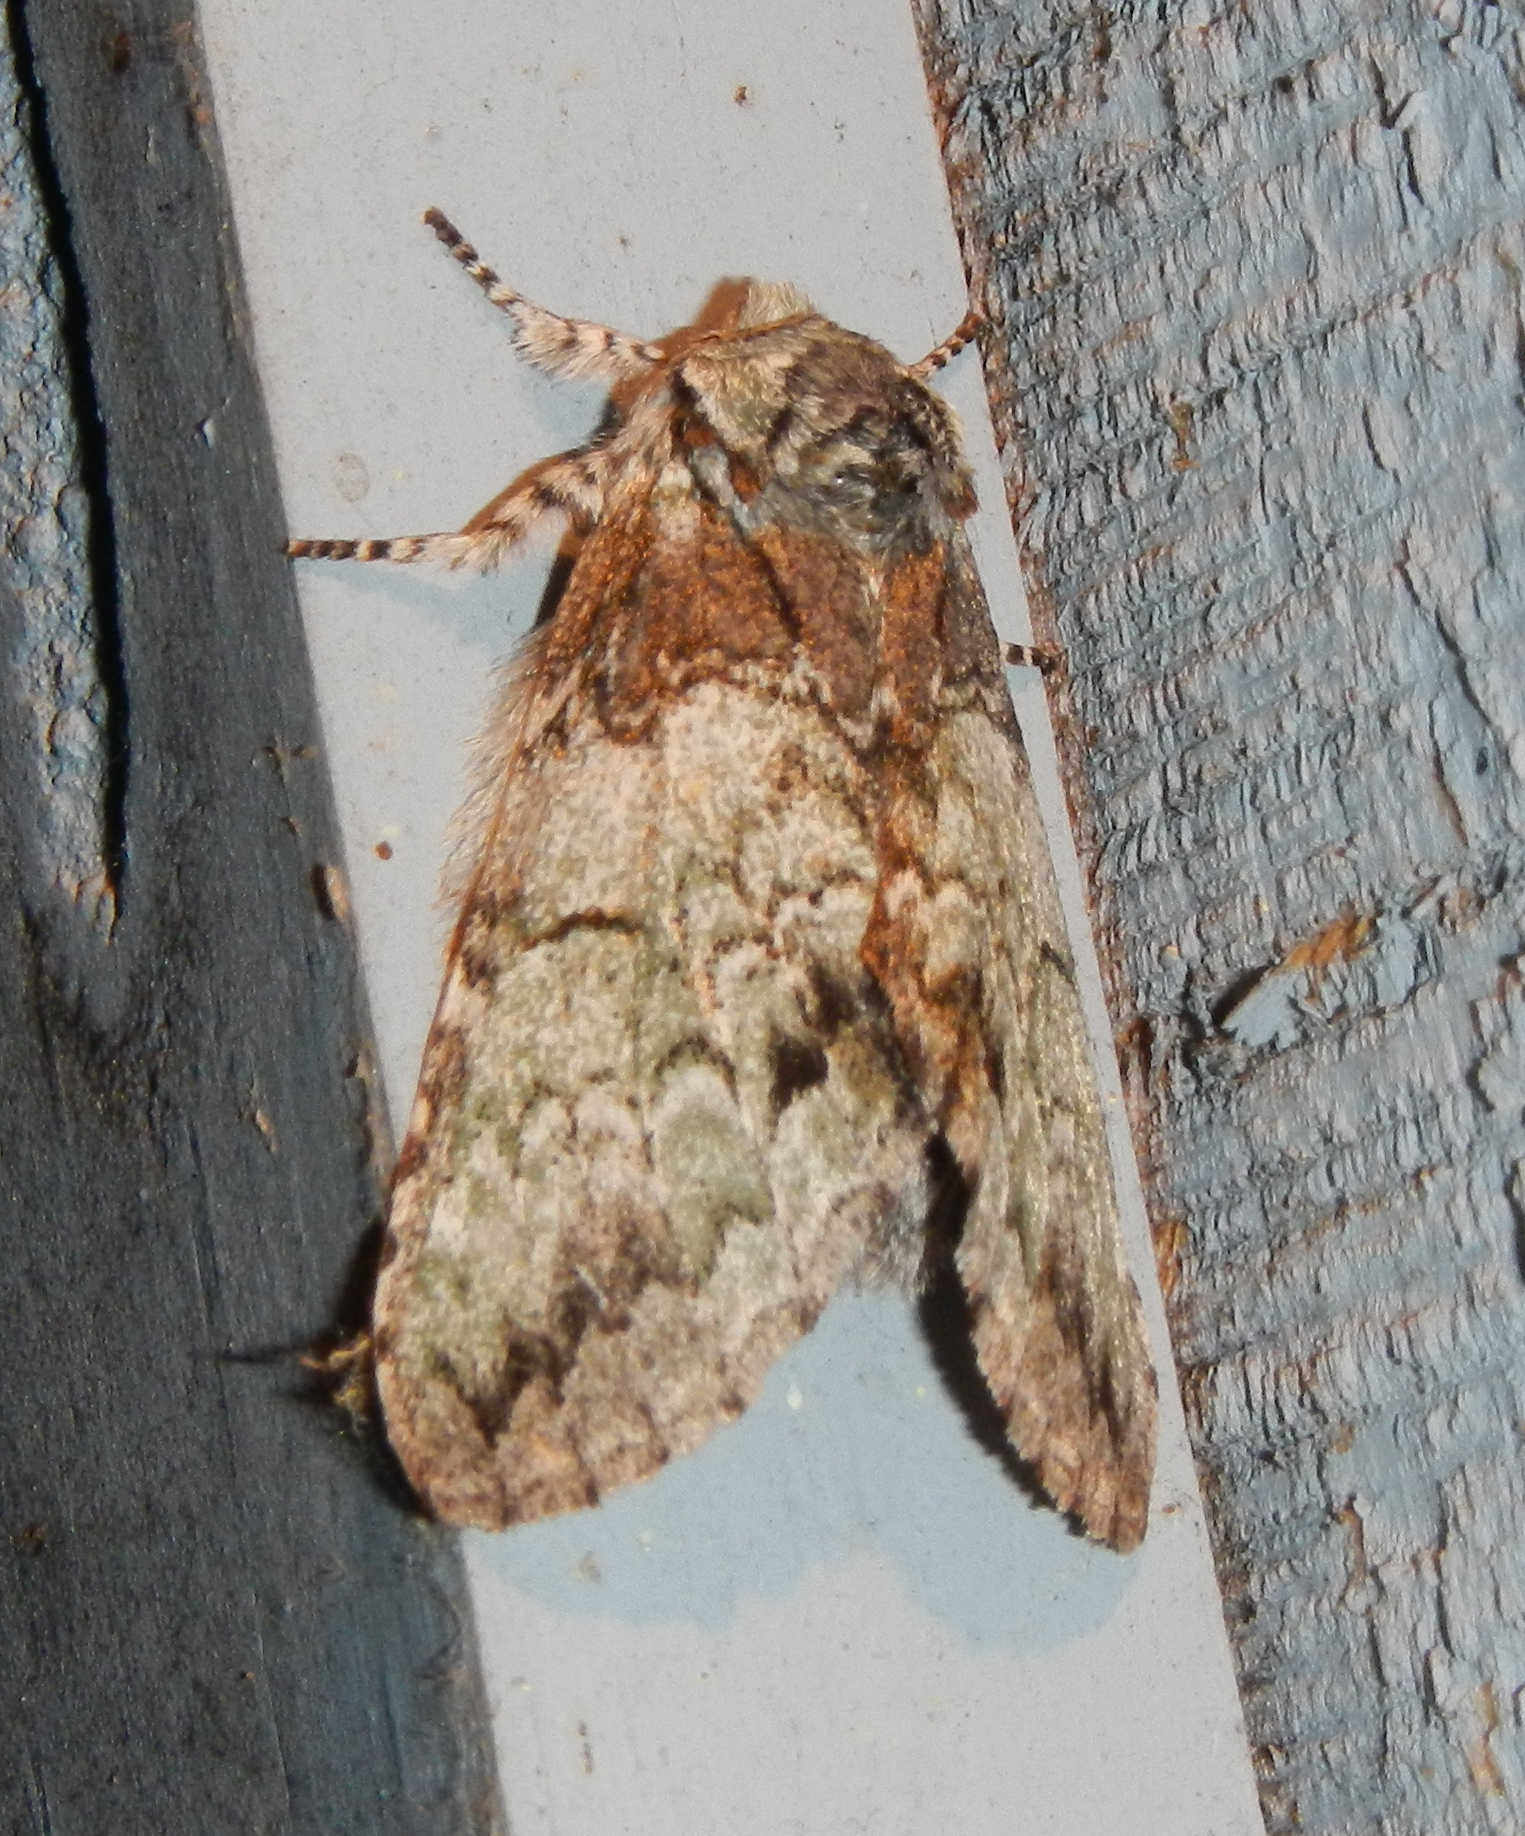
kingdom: Animalia
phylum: Arthropoda
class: Insecta
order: Lepidoptera
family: Notodontidae
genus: Macrurocampa
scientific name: Macrurocampa marthesia
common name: Mottled prominent
